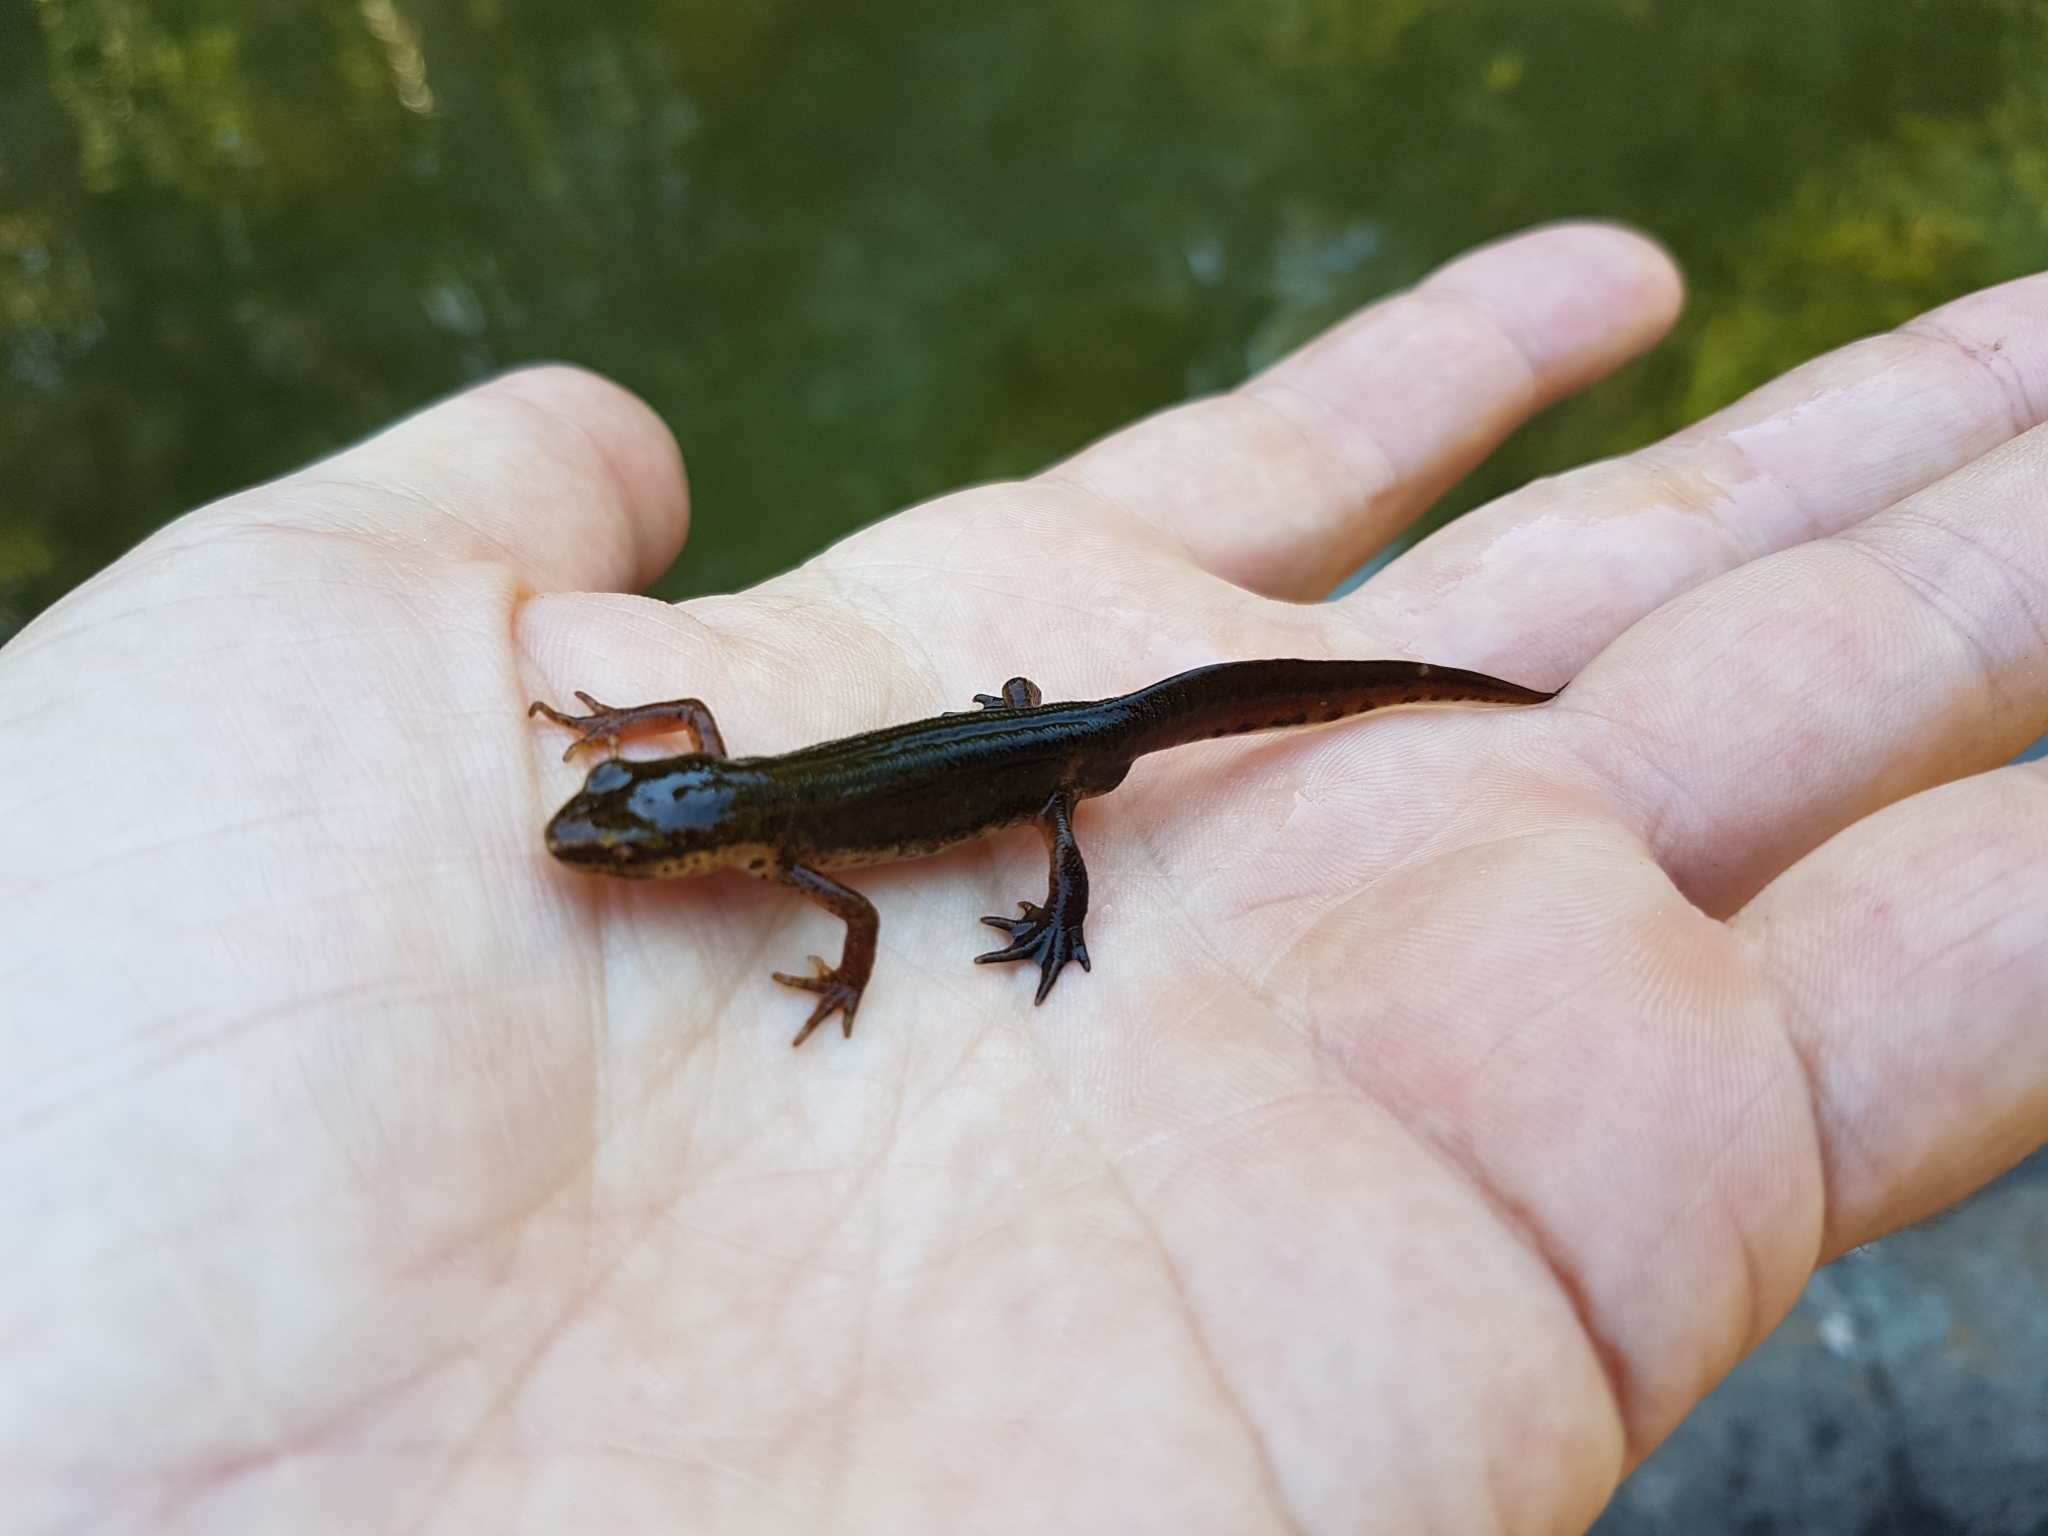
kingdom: Animalia
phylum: Chordata
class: Amphibia
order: Caudata
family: Salamandridae
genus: Lissotriton
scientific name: Lissotriton helveticus
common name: Palmate newt
